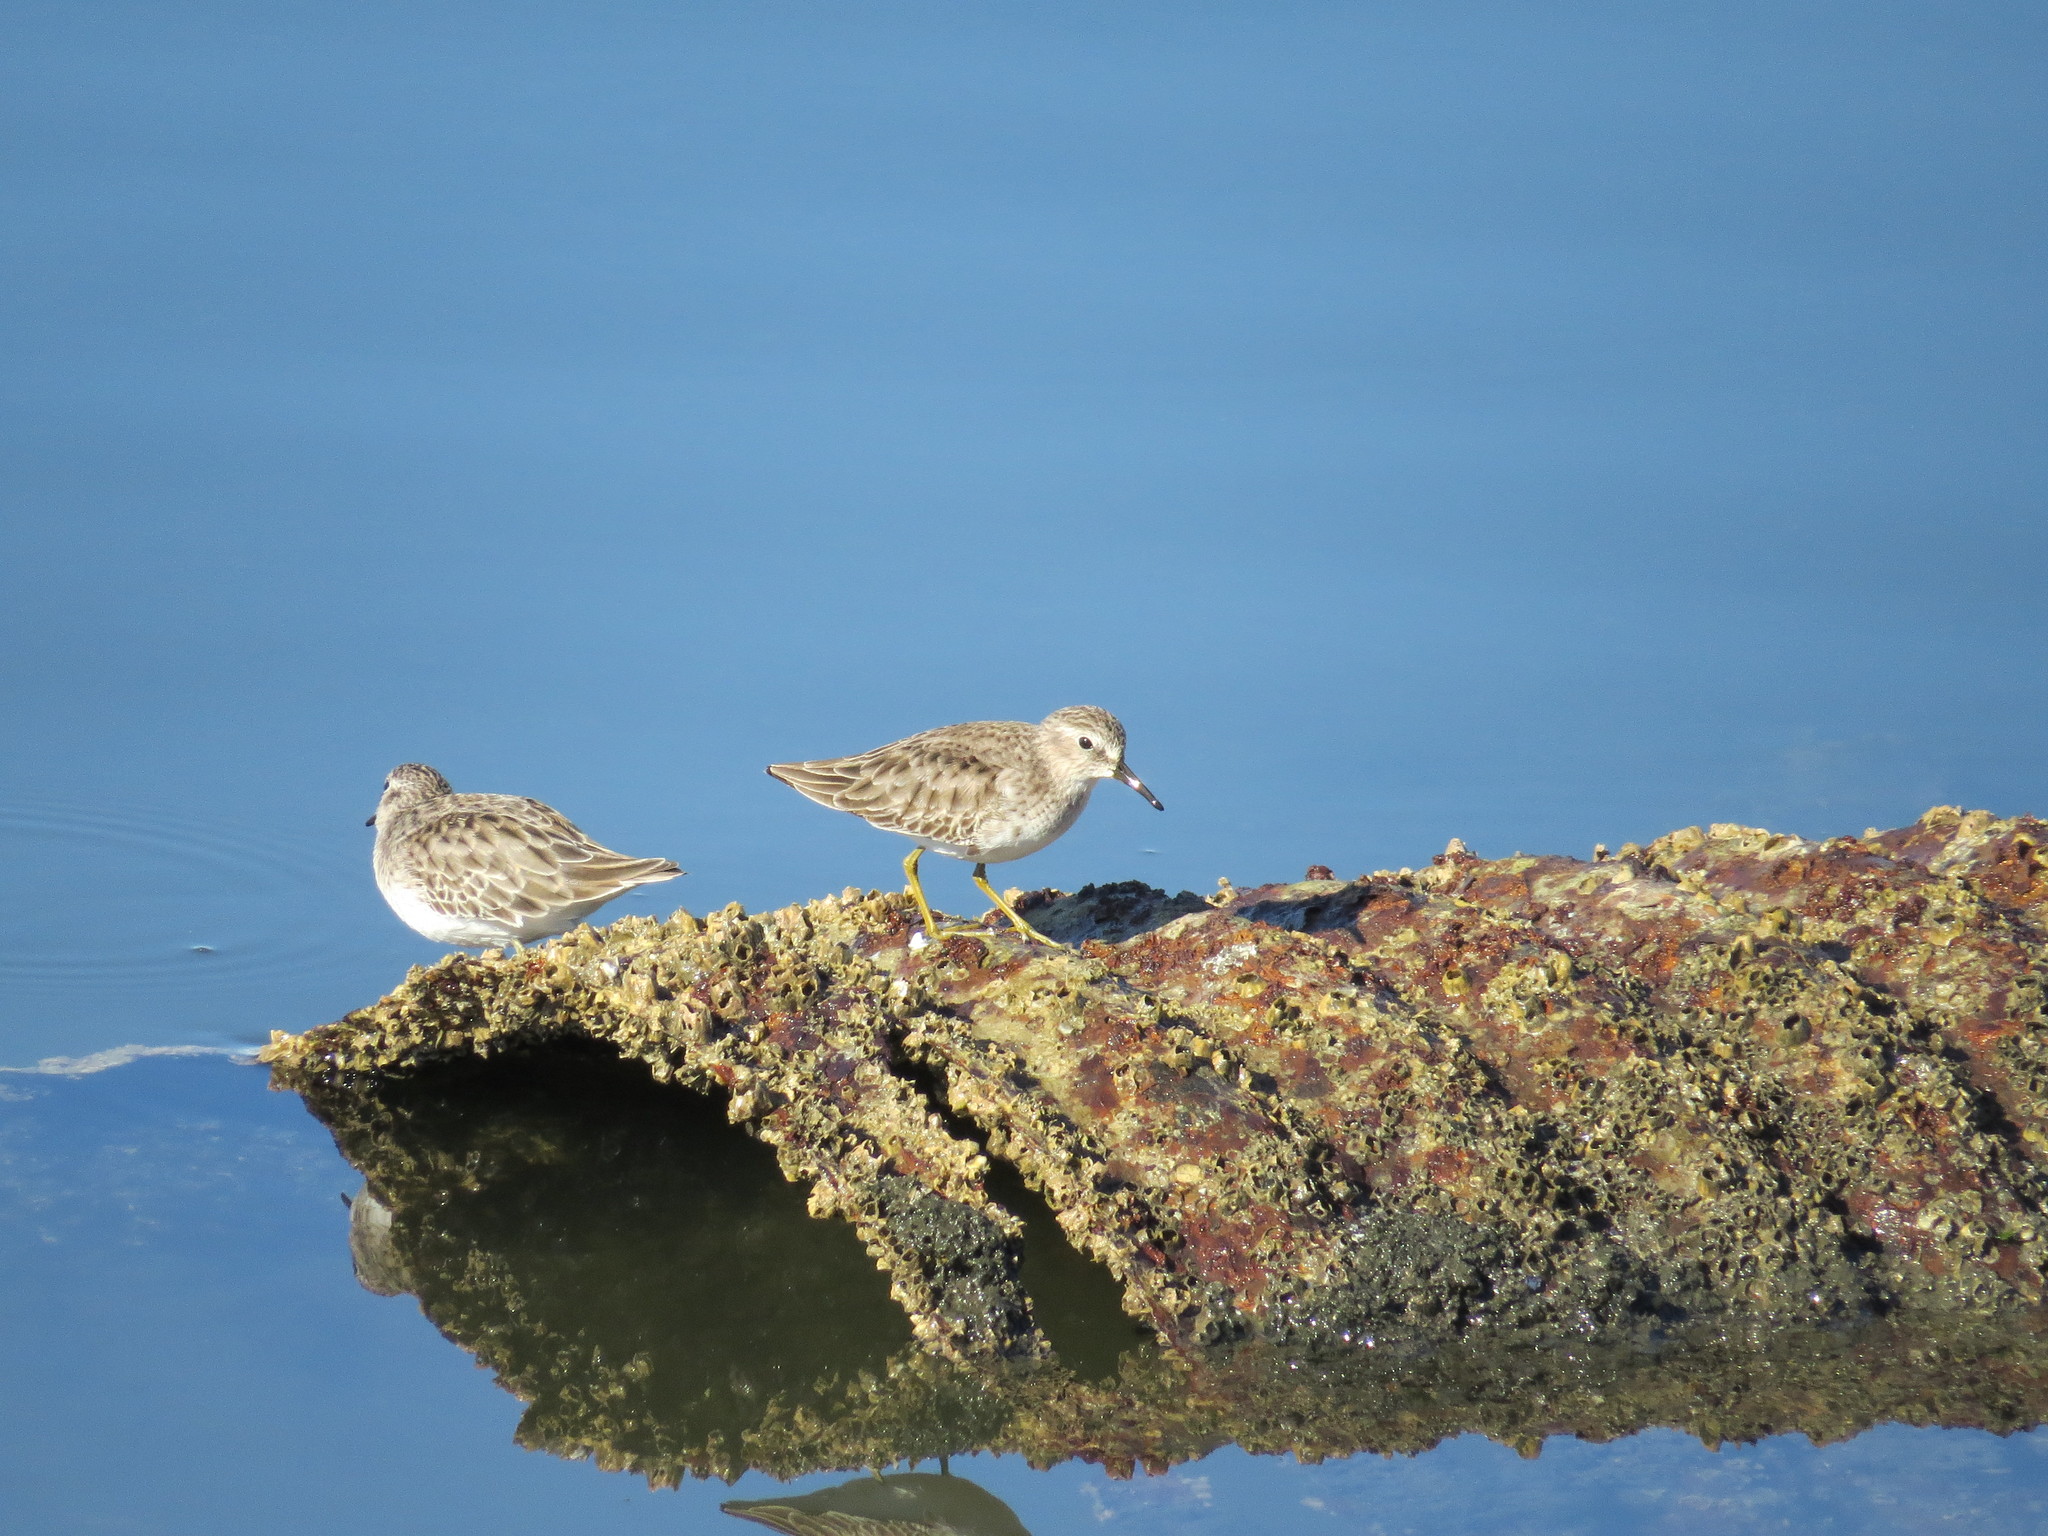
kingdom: Animalia
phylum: Chordata
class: Aves
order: Charadriiformes
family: Scolopacidae
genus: Calidris
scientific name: Calidris minutilla
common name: Least sandpiper
